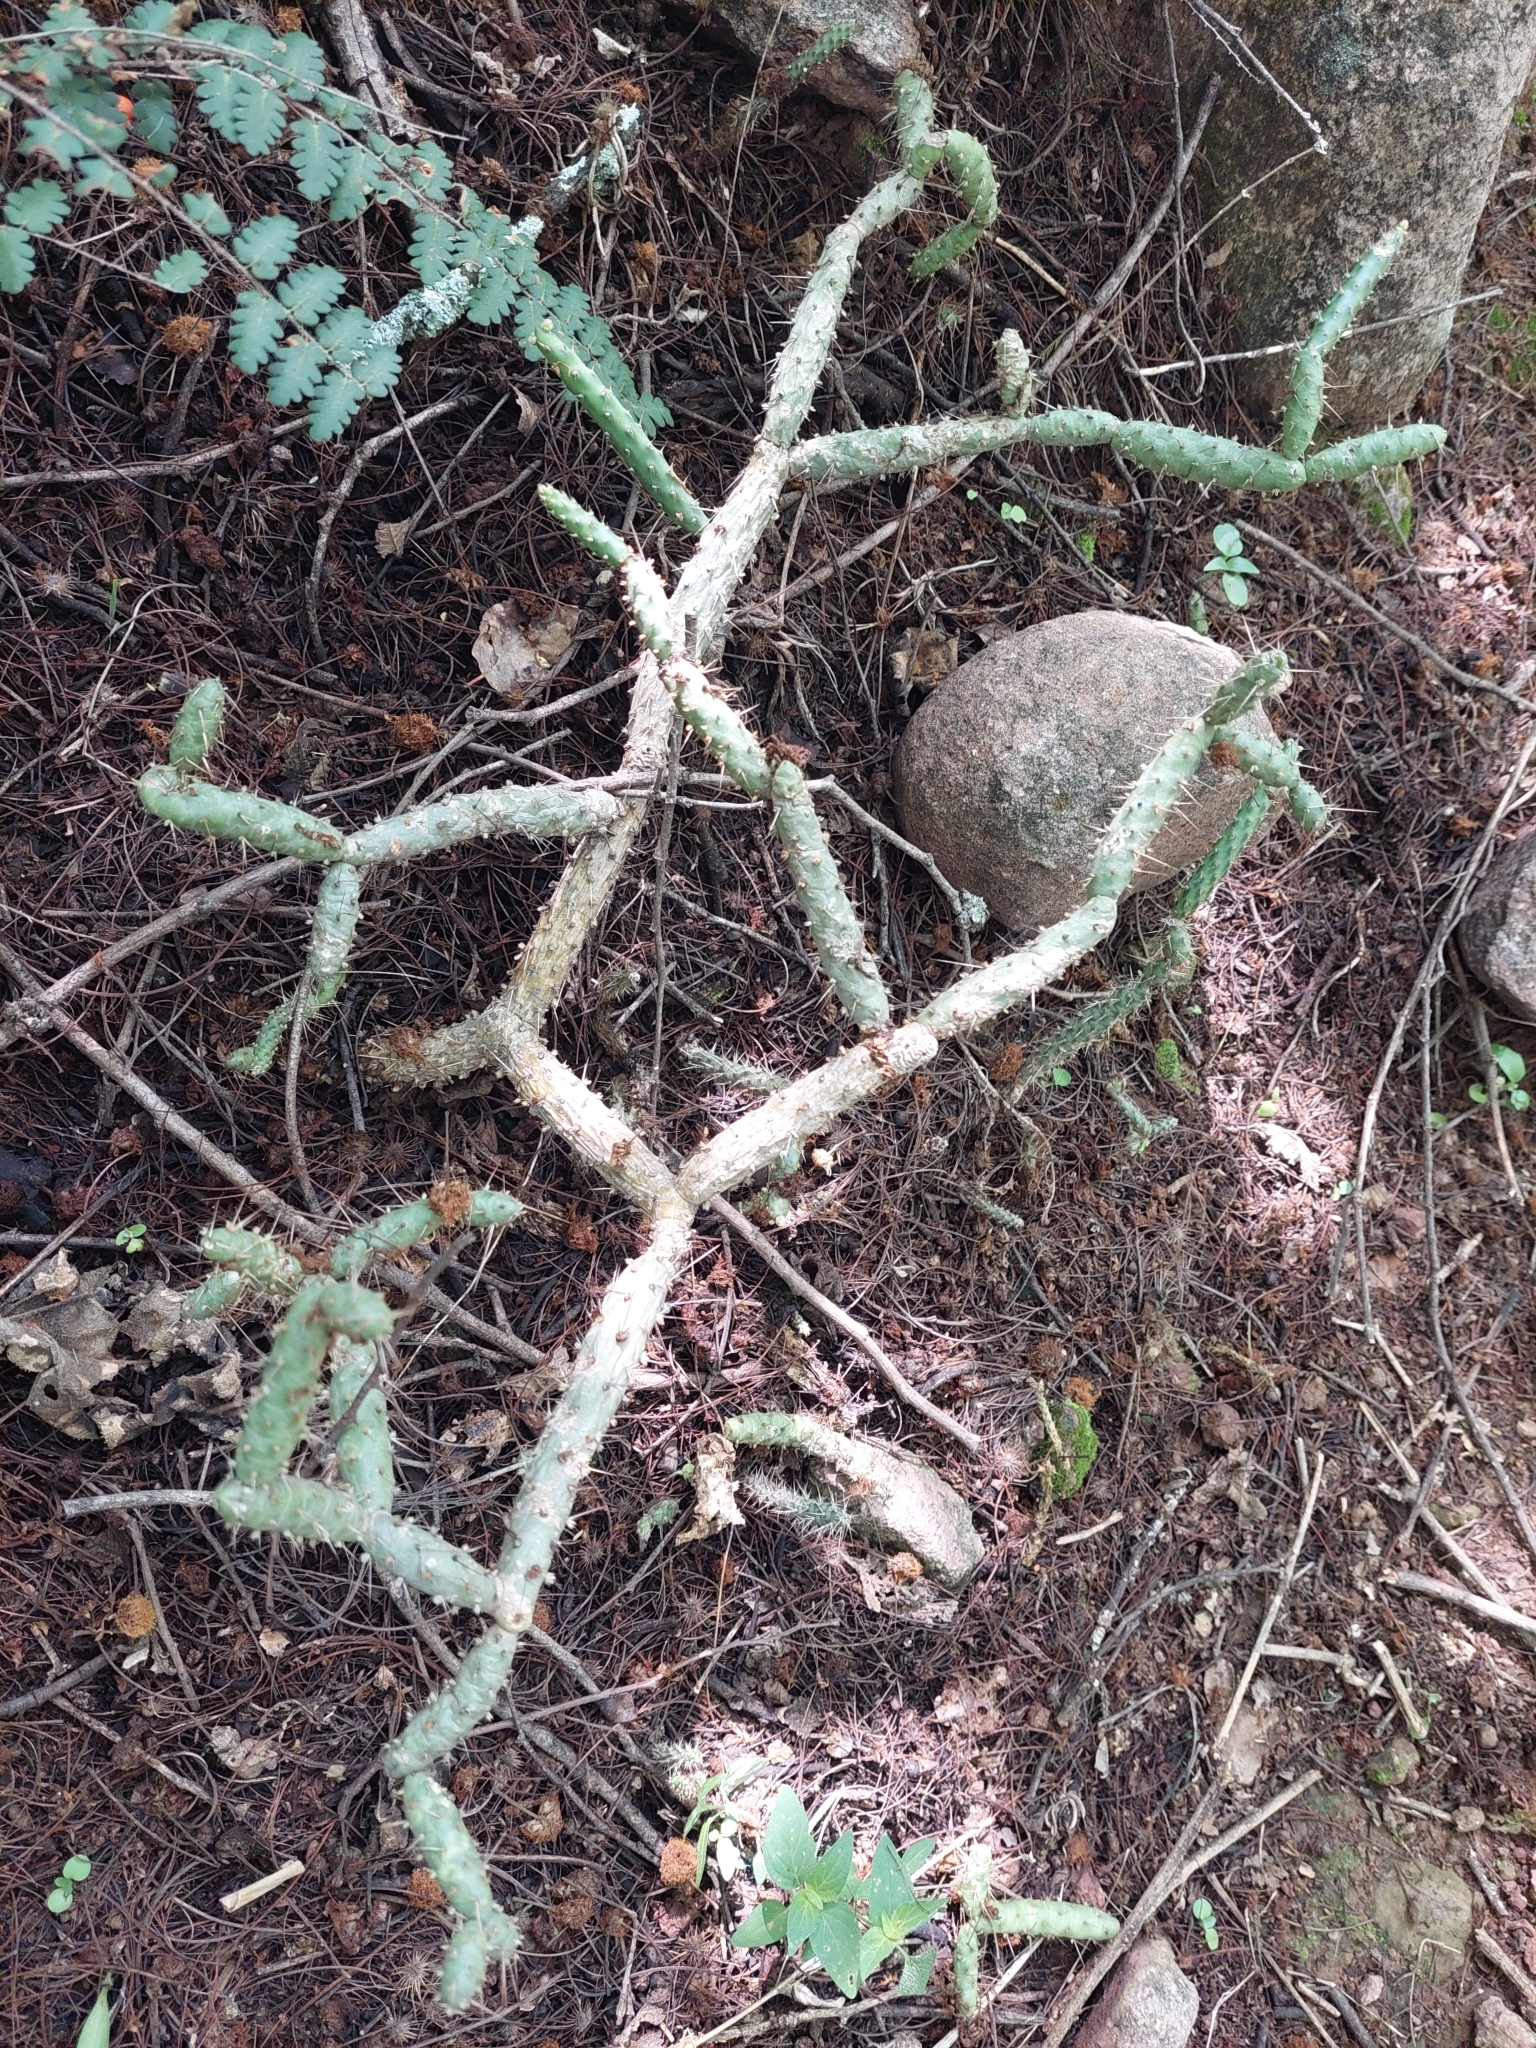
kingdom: Plantae
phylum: Tracheophyta
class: Magnoliopsida
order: Caryophyllales
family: Cactaceae
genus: Opuntia
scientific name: Opuntia pubescens
